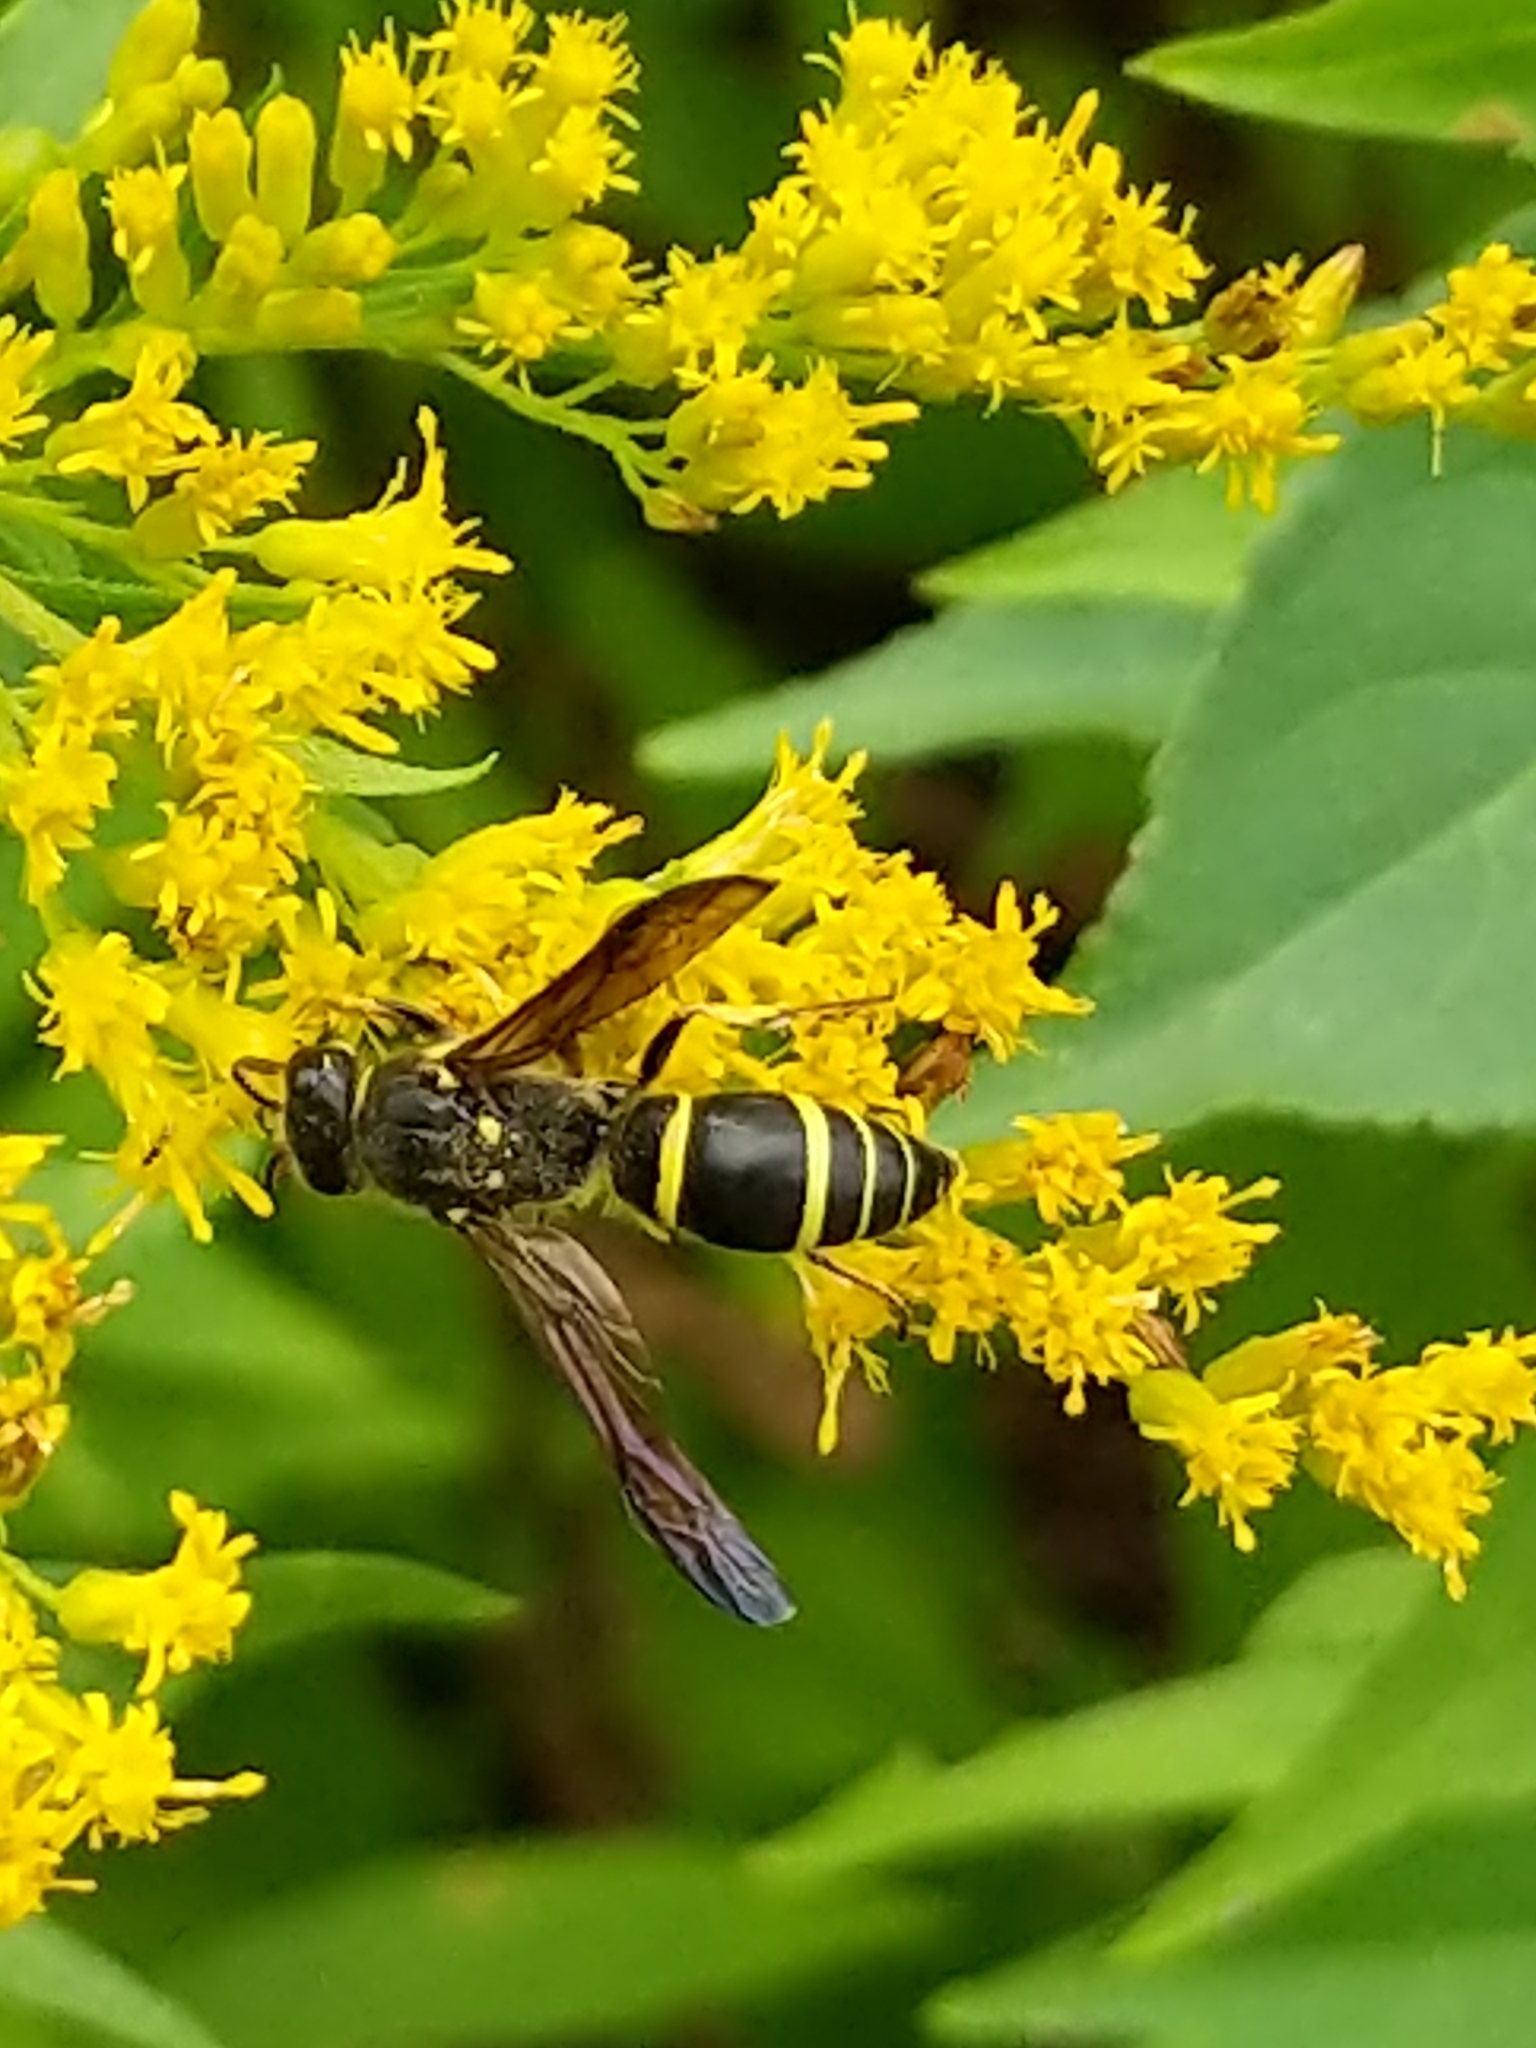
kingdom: Animalia
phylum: Arthropoda
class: Insecta
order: Hymenoptera
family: Vespidae
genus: Ancistrocerus
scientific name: Ancistrocerus
